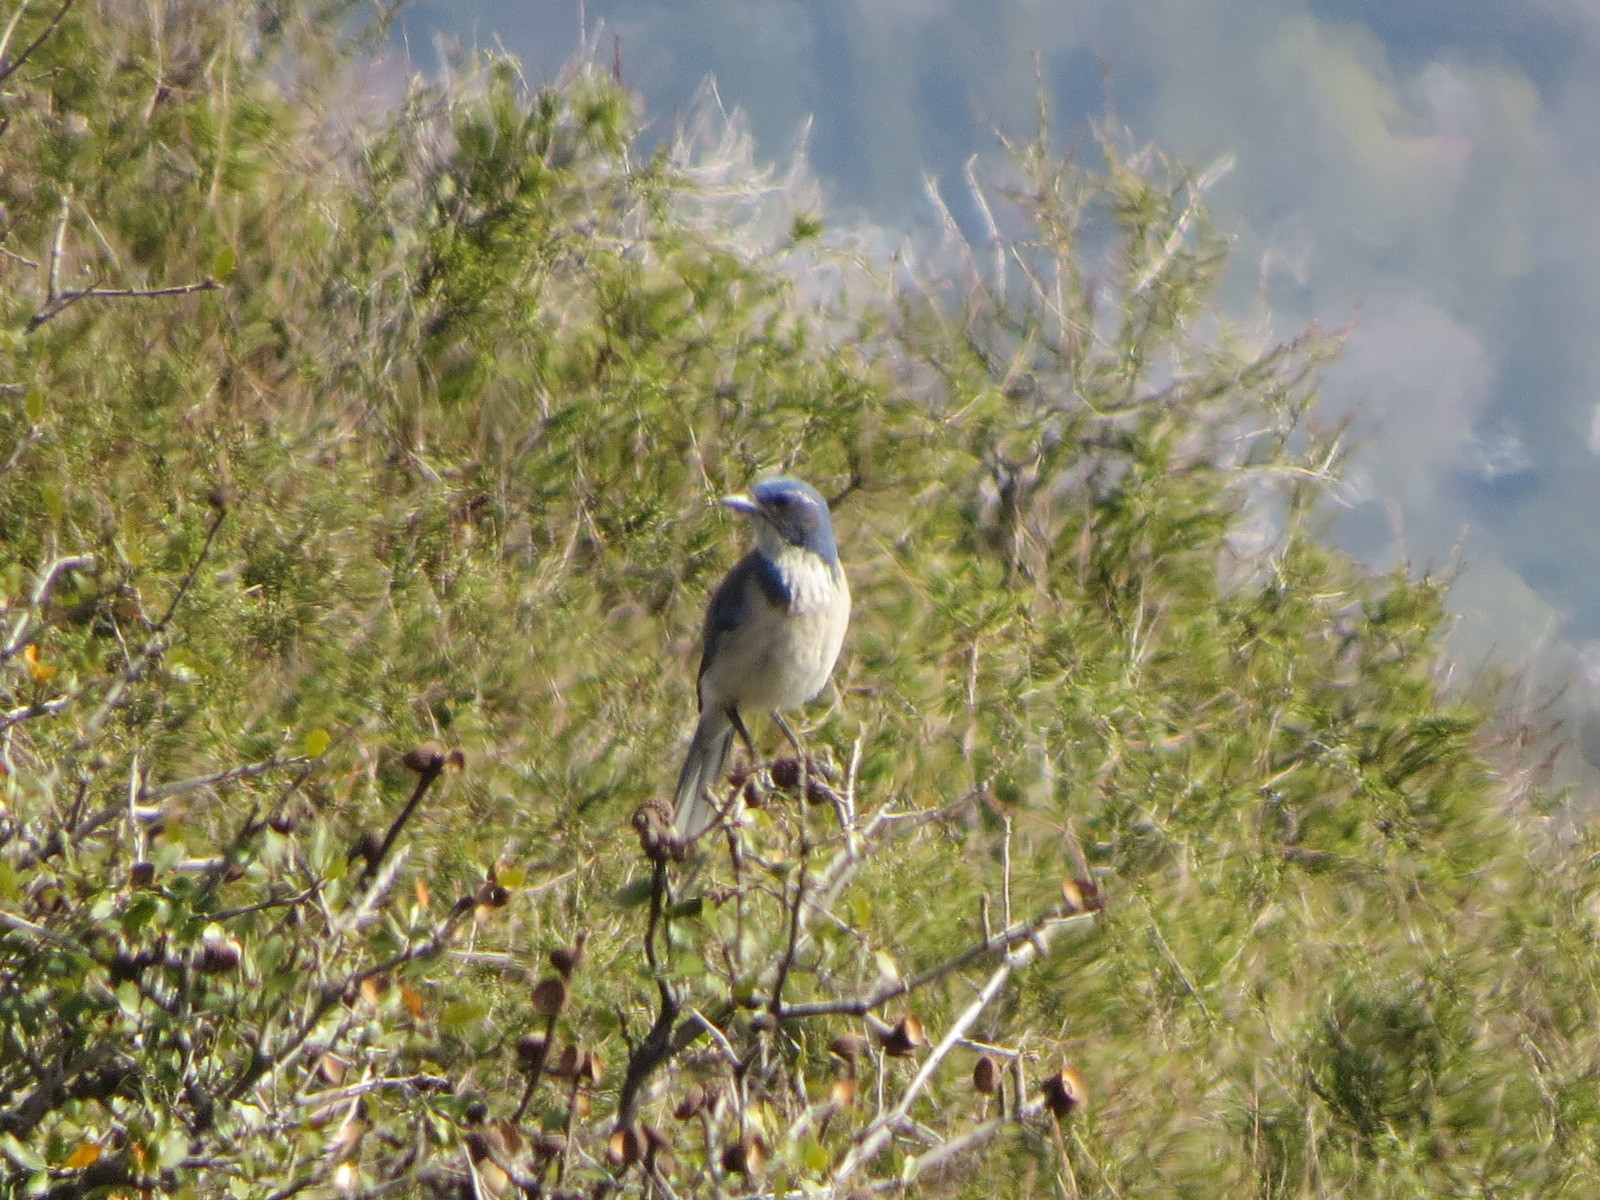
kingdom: Animalia
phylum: Chordata
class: Aves
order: Passeriformes
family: Corvidae
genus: Aphelocoma
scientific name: Aphelocoma californica
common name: California scrub-jay
